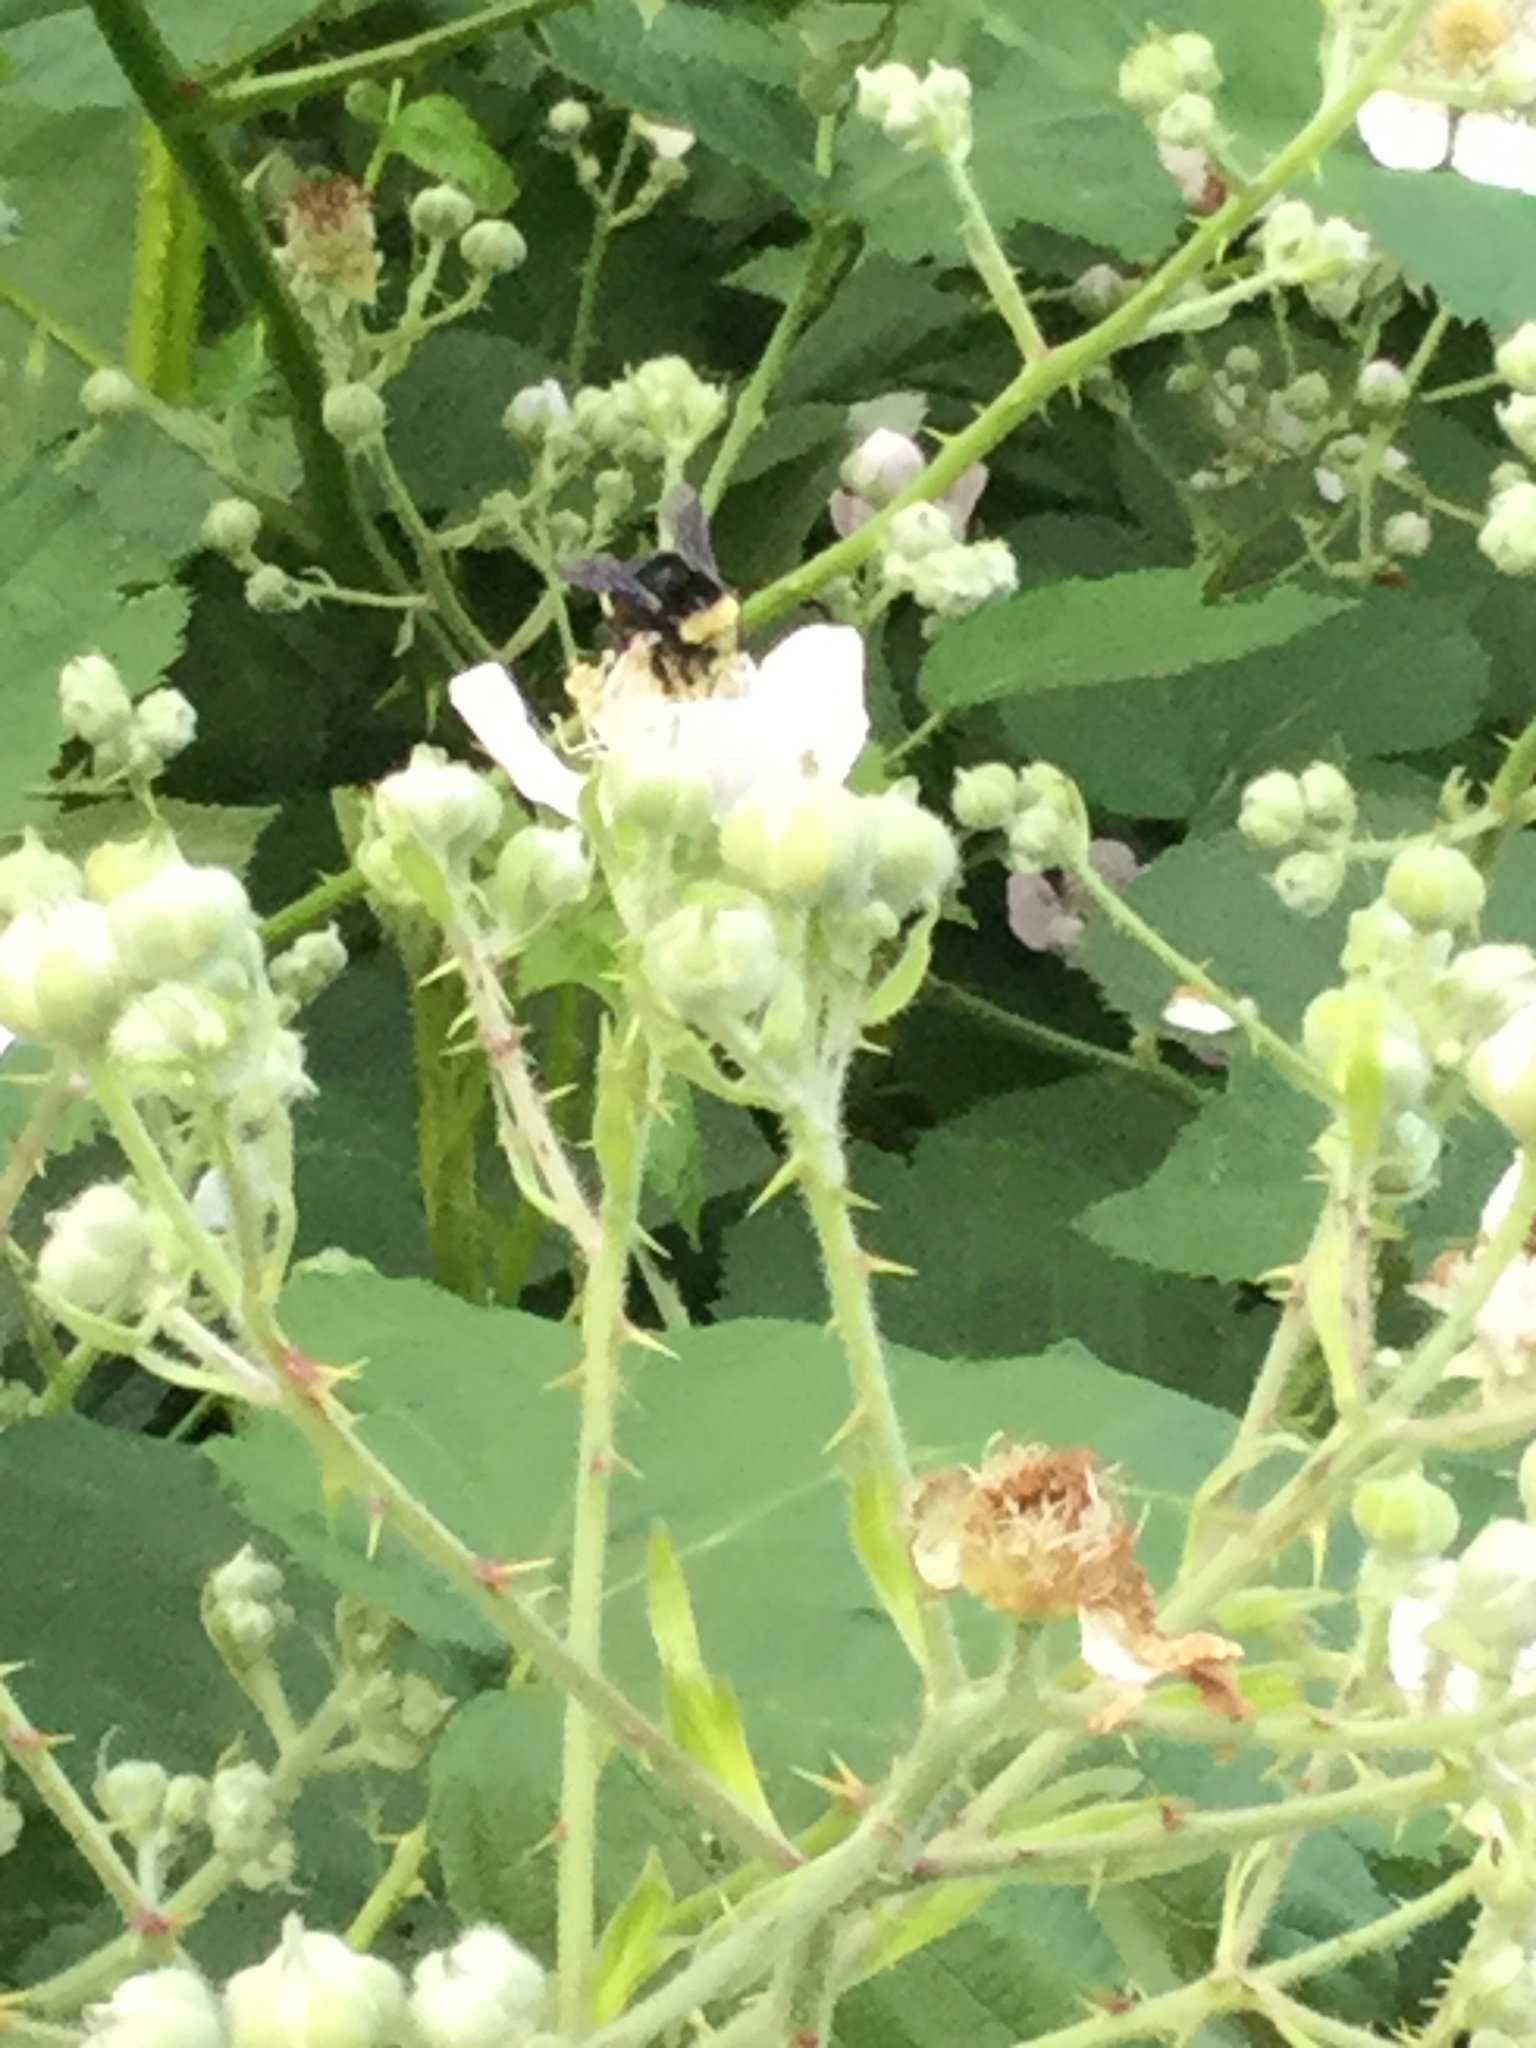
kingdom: Animalia
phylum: Arthropoda
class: Insecta
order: Hymenoptera
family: Apidae
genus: Bombus
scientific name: Bombus vosnesenskii
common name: Vosnesensky bumble bee
